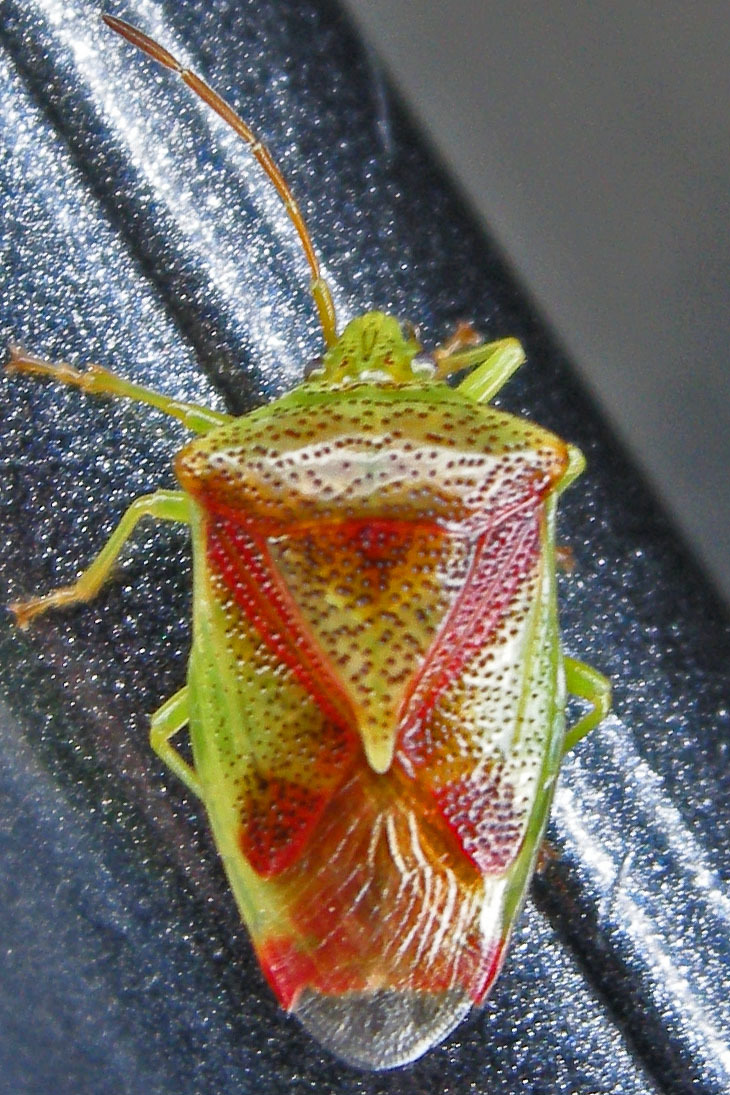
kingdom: Animalia
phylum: Arthropoda
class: Insecta
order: Hemiptera
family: Acanthosomatidae
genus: Elasmostethus
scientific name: Elasmostethus cruciatus
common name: Red-cross shield bug
